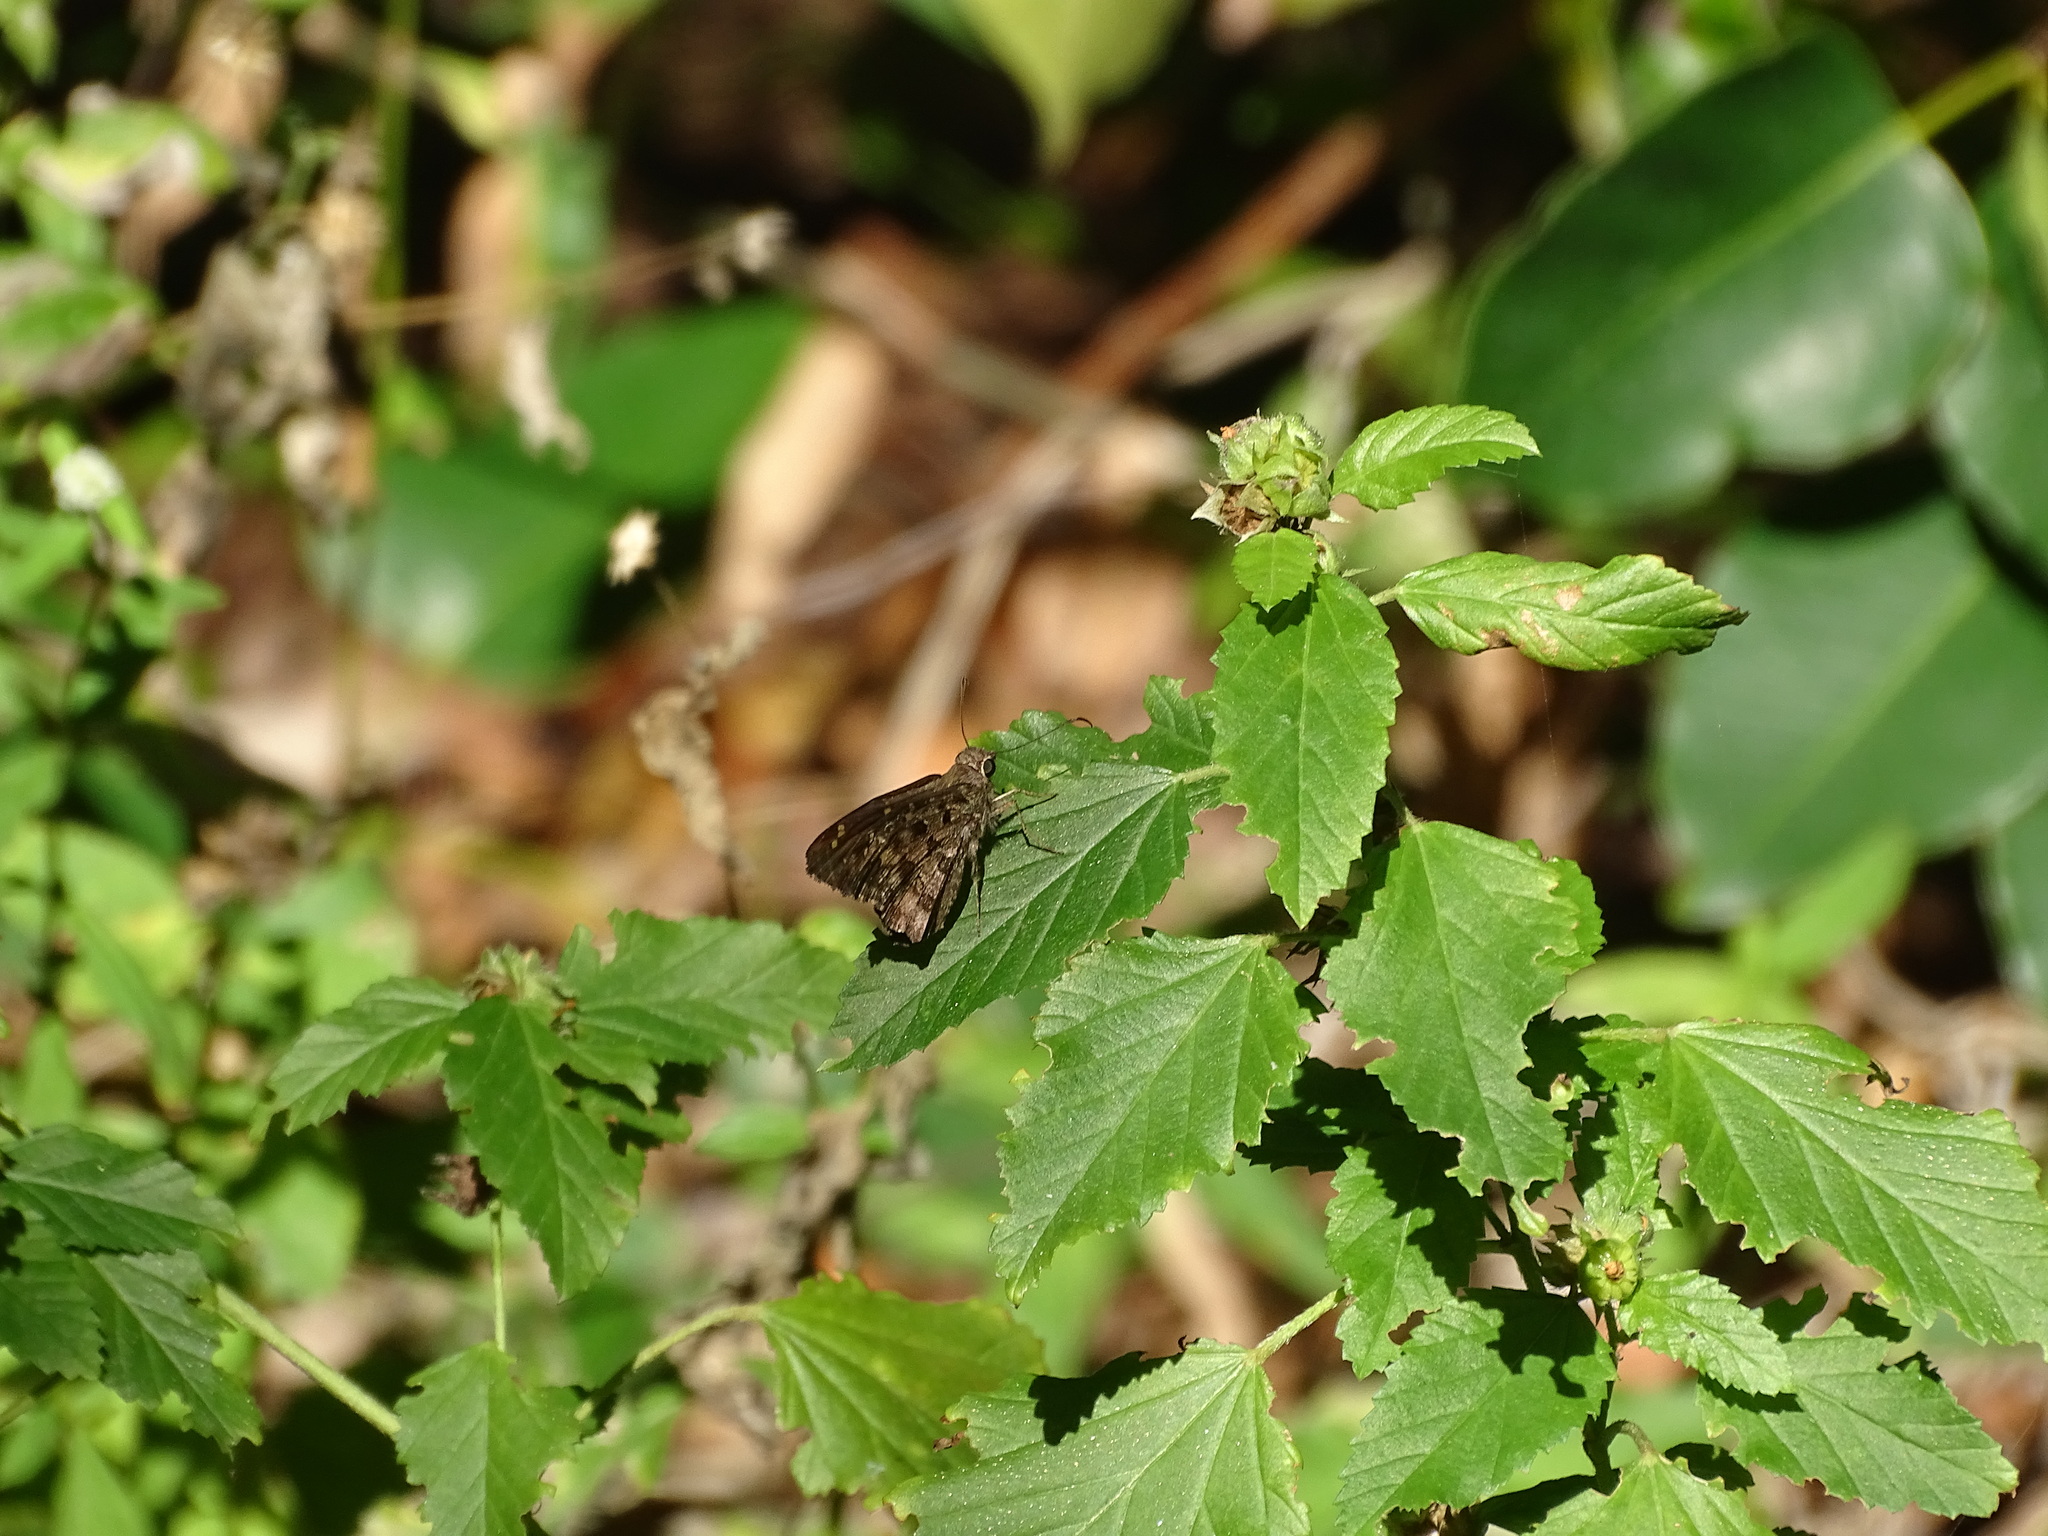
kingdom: Animalia
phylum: Arthropoda
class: Insecta
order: Lepidoptera
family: Hesperiidae
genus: Thorybes
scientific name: Thorybes
